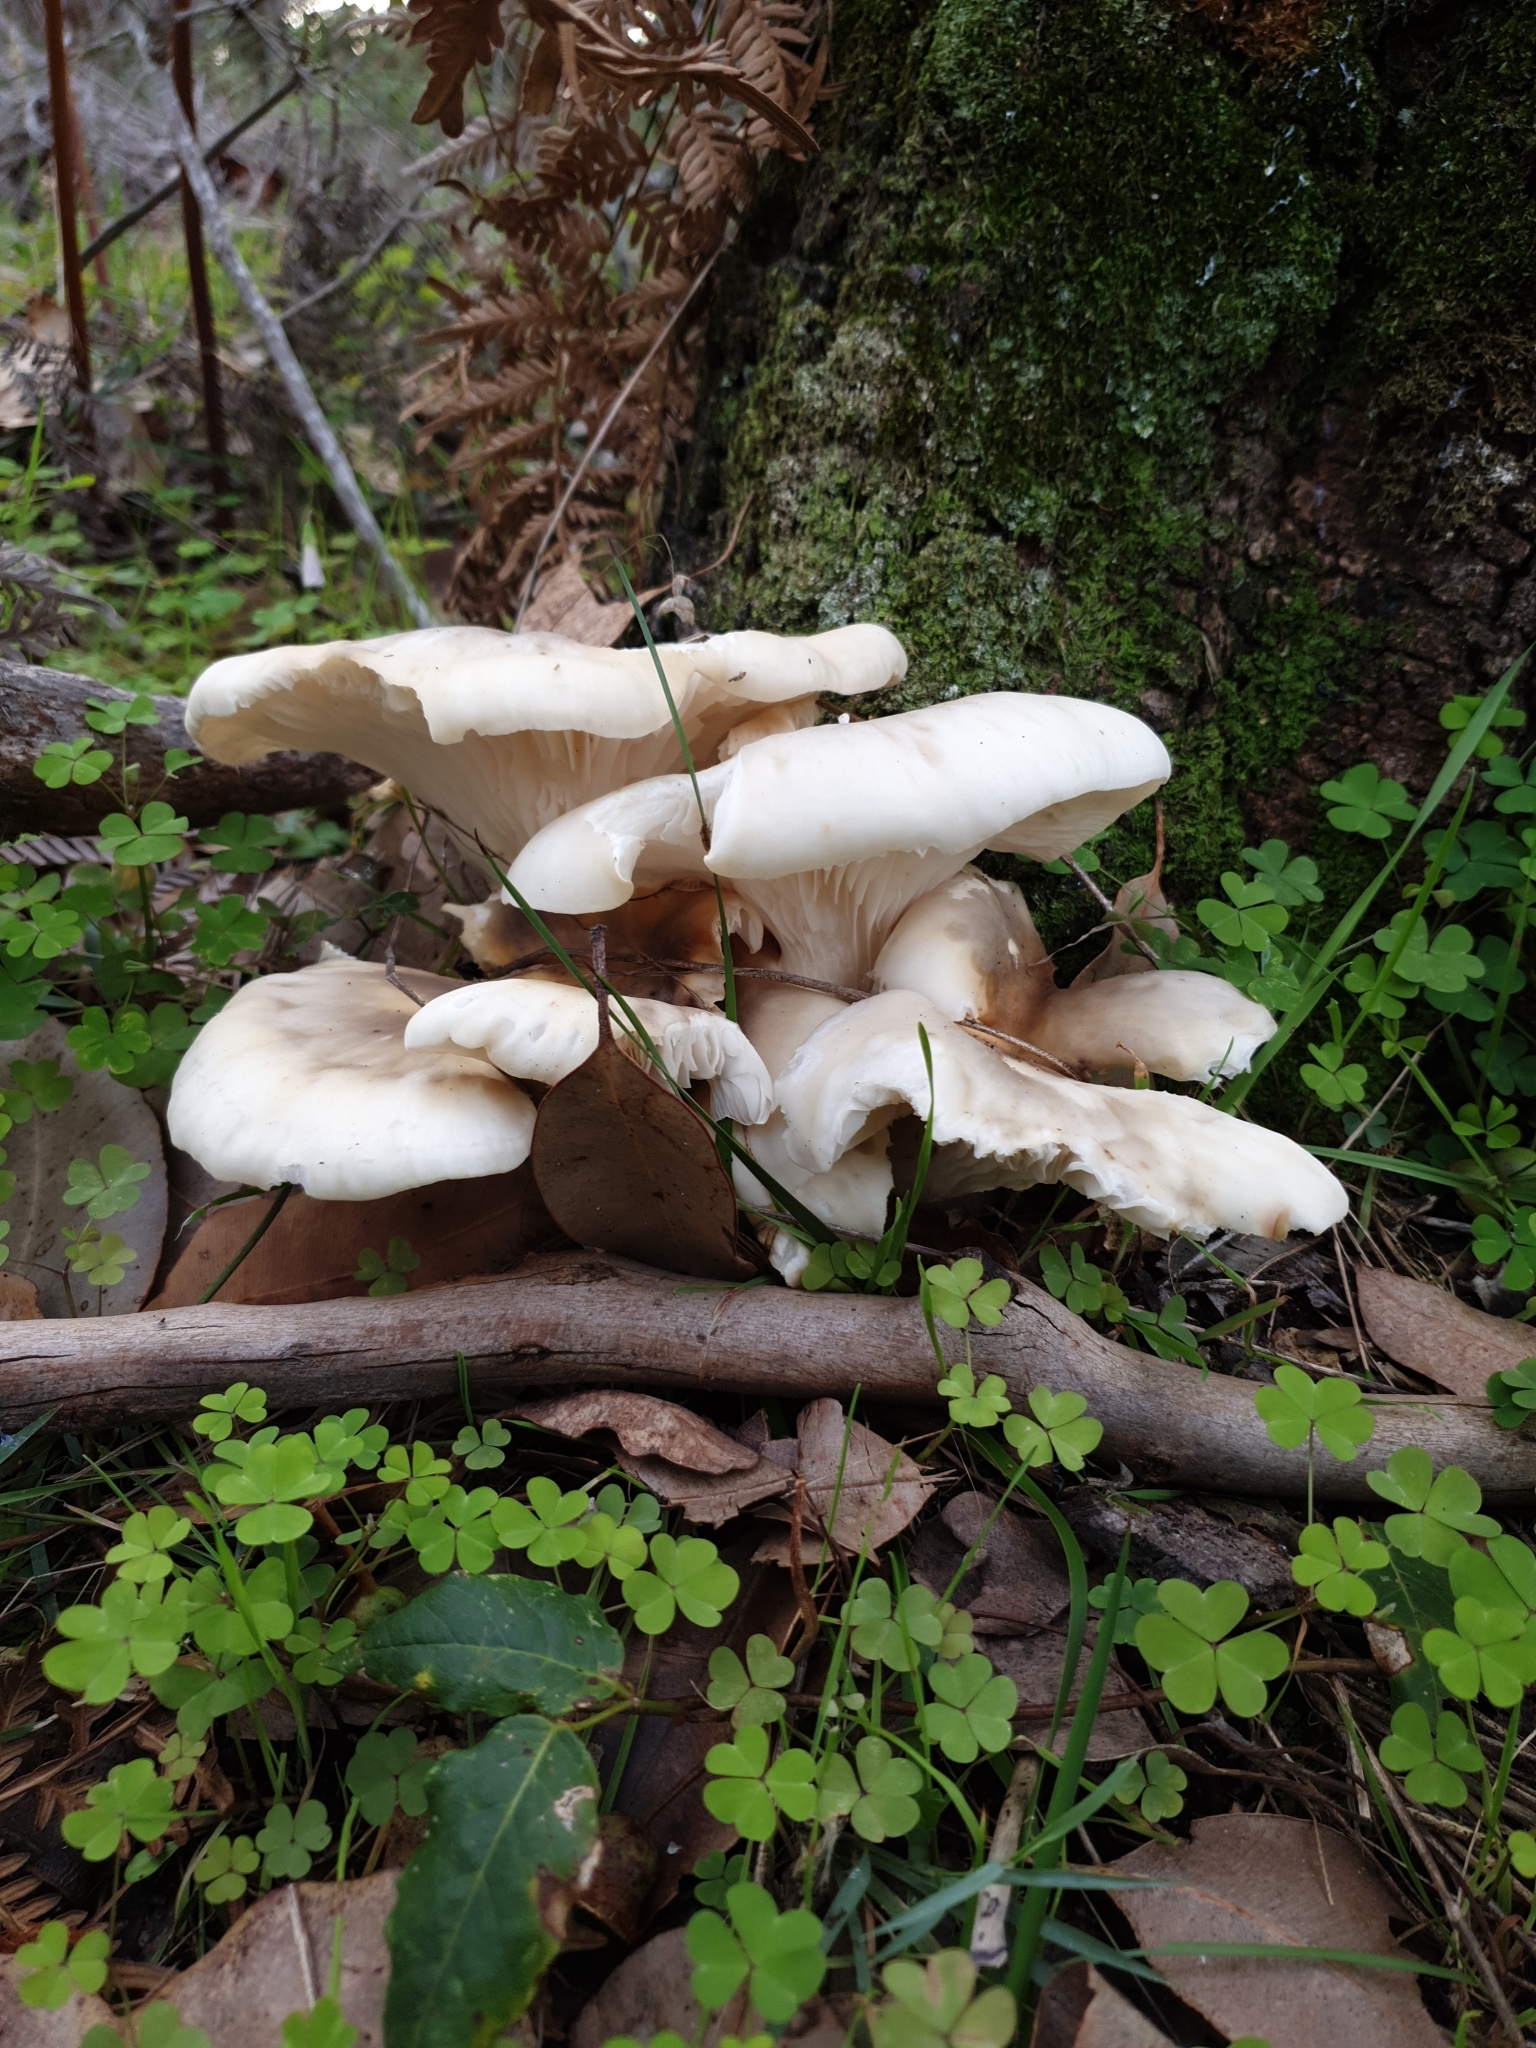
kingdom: Fungi
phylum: Basidiomycota
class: Agaricomycetes
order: Agaricales
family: Omphalotaceae
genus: Omphalotus
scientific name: Omphalotus nidiformis
